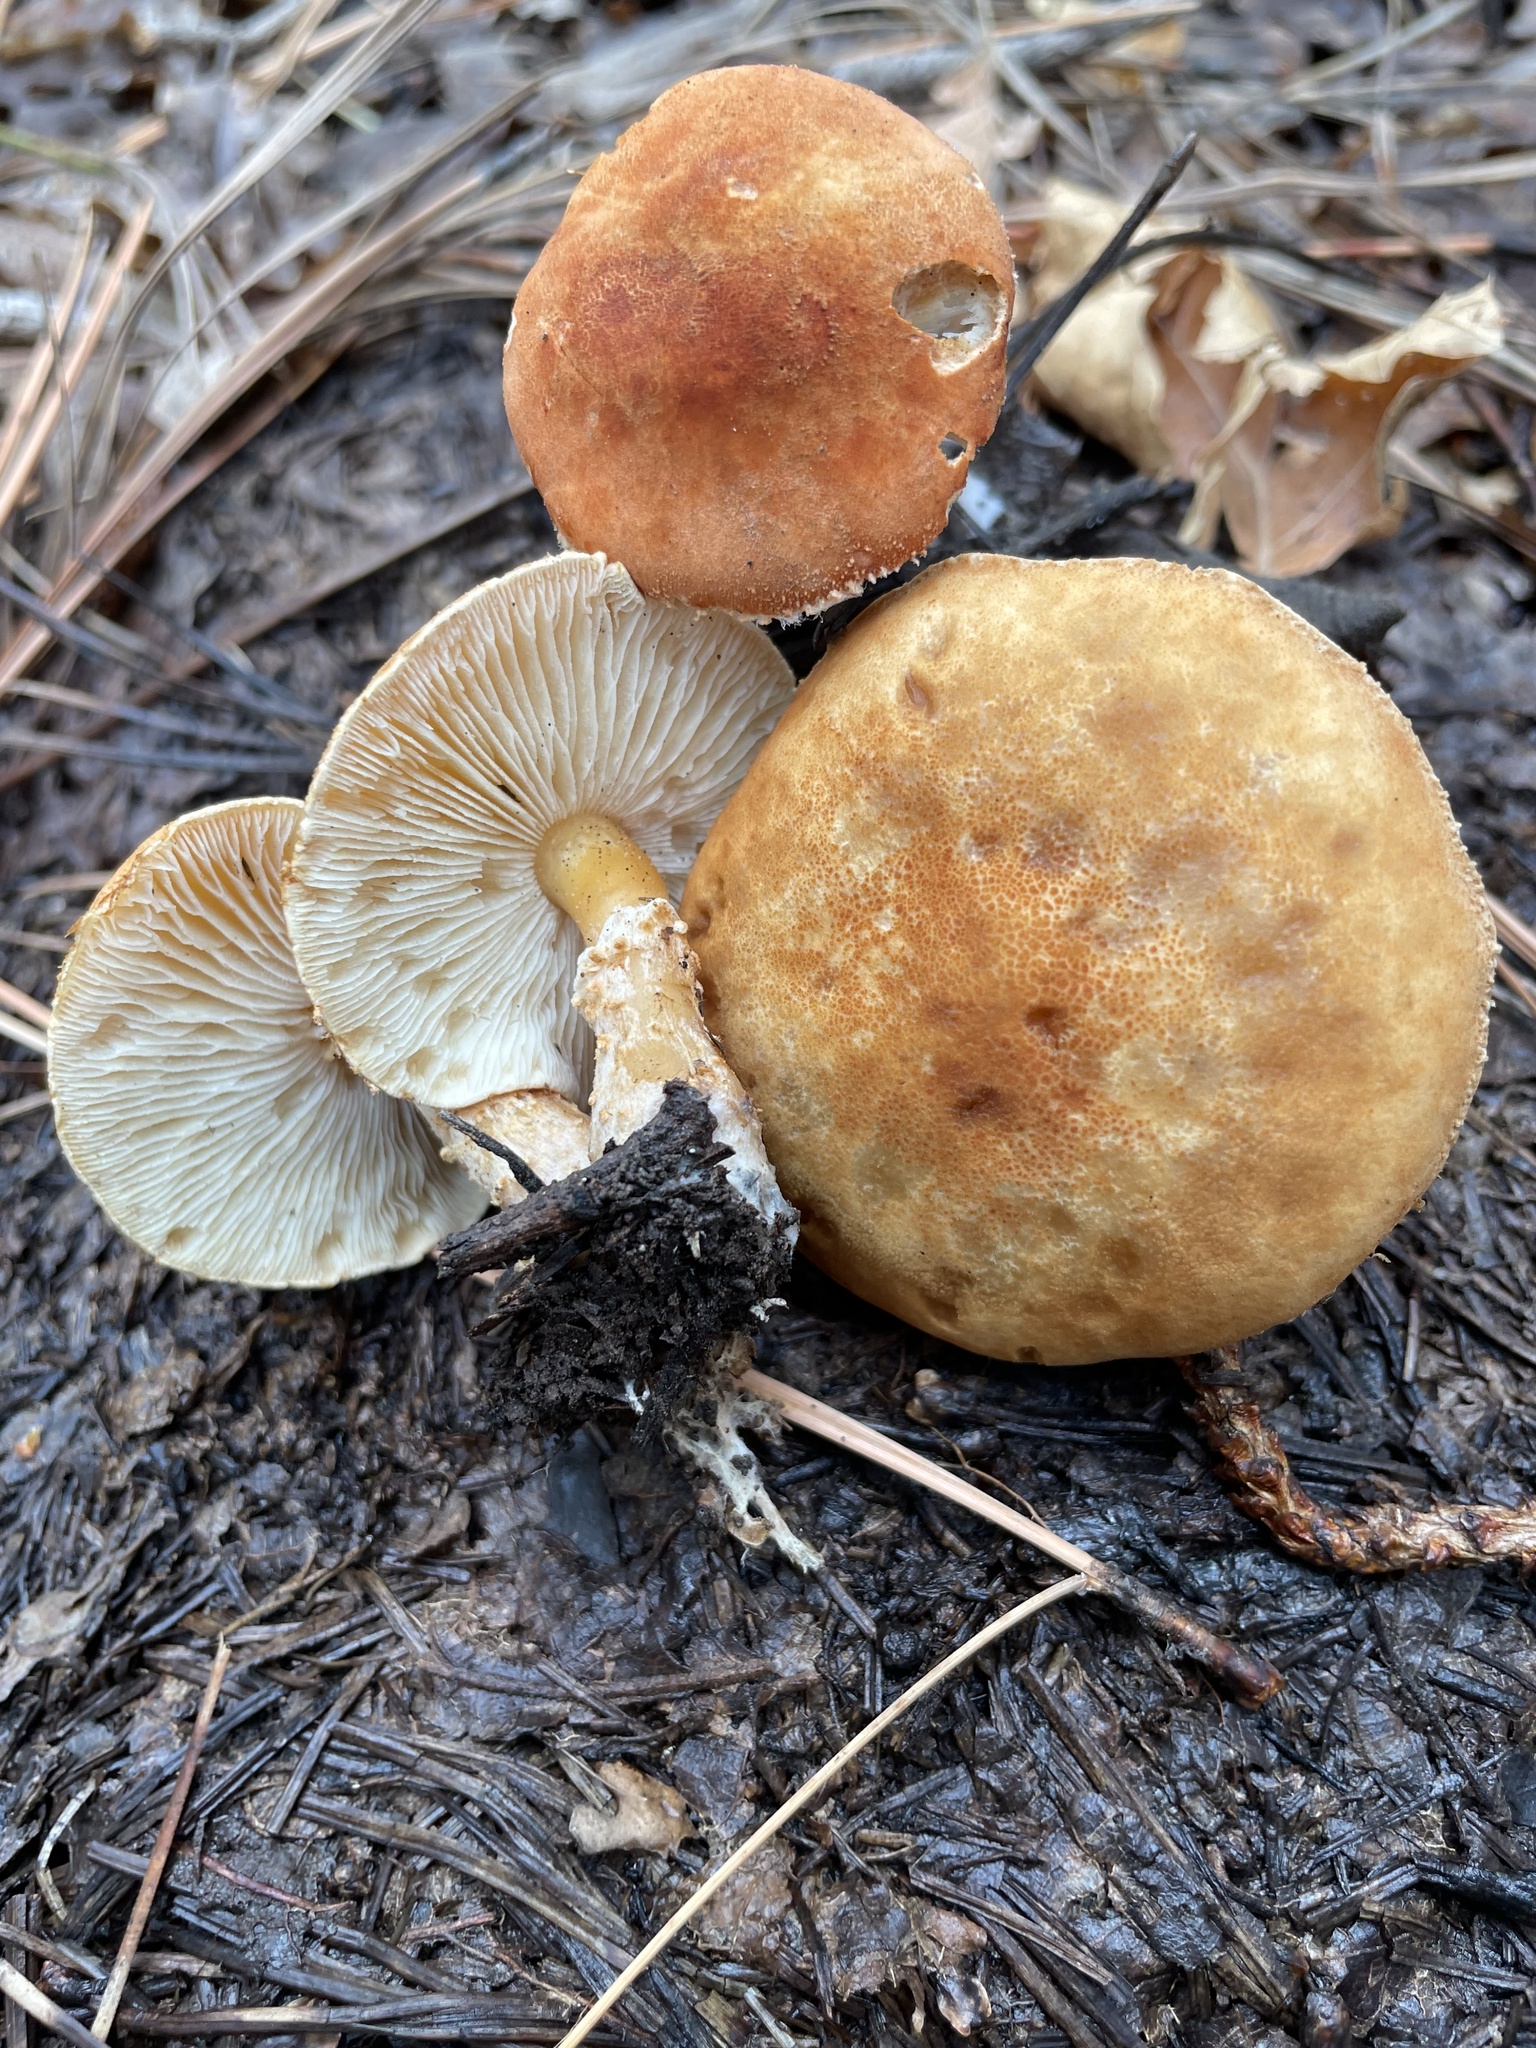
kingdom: Fungi
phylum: Basidiomycota
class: Agaricomycetes
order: Agaricales
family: Agaricaceae
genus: Cystodermella
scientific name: Cystodermella cinnabarina
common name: Cinnabar powdercap
